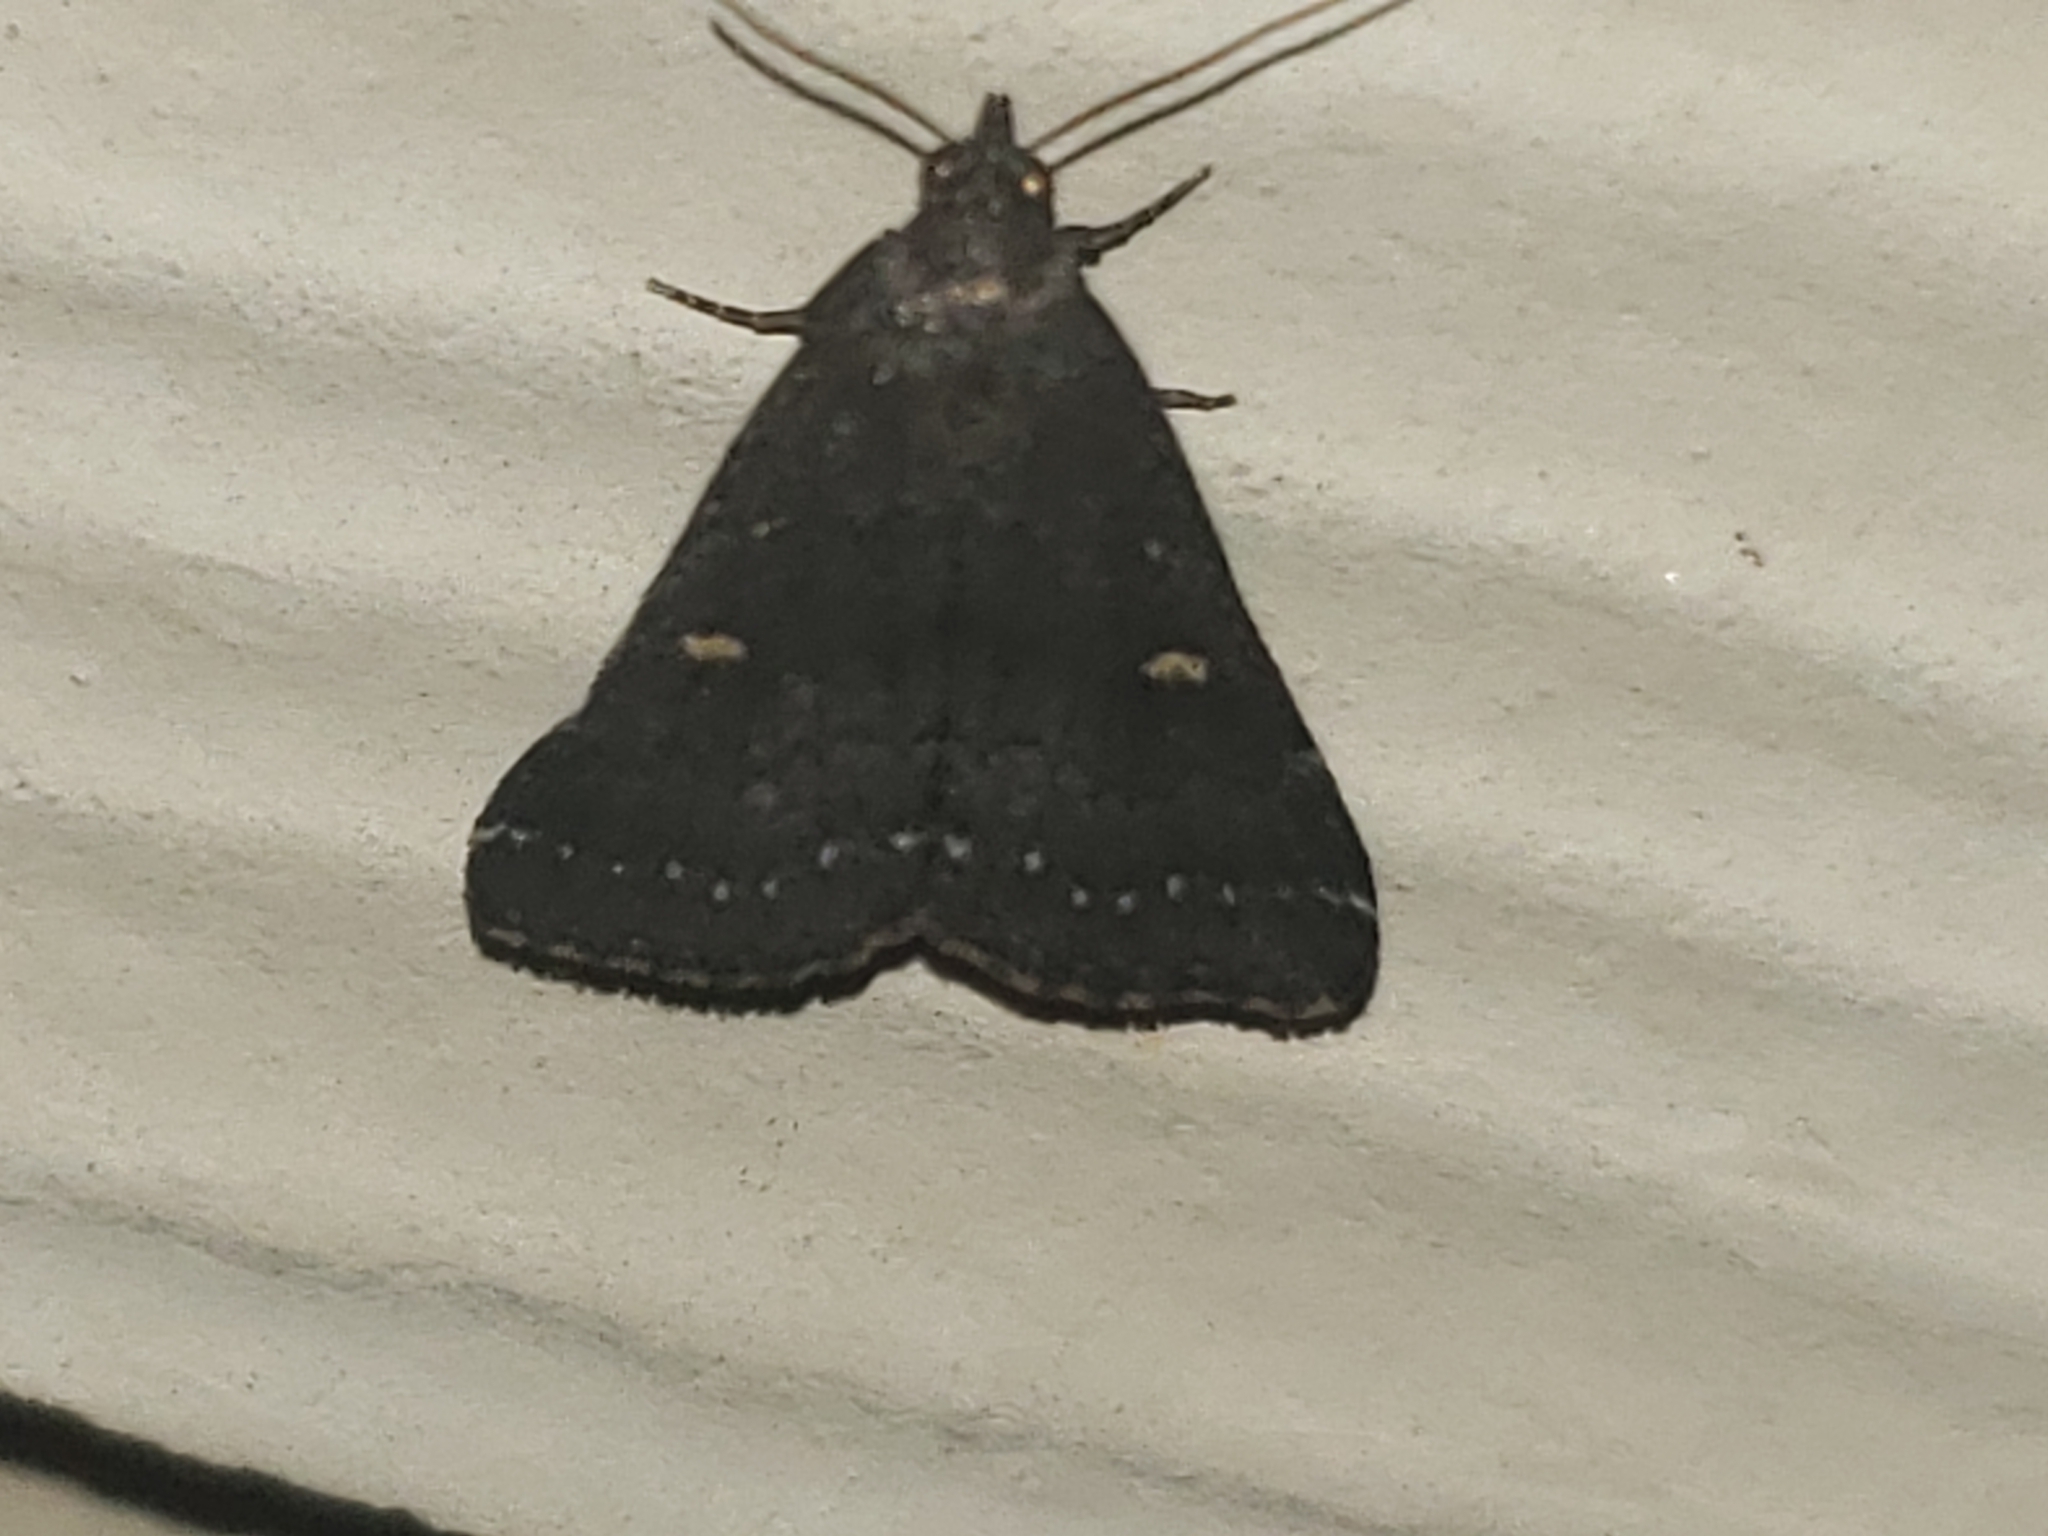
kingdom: Animalia
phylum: Arthropoda
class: Insecta
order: Lepidoptera
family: Erebidae
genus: Tetanolita
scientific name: Tetanolita mynesalis
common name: Smoky tetanolita moth
